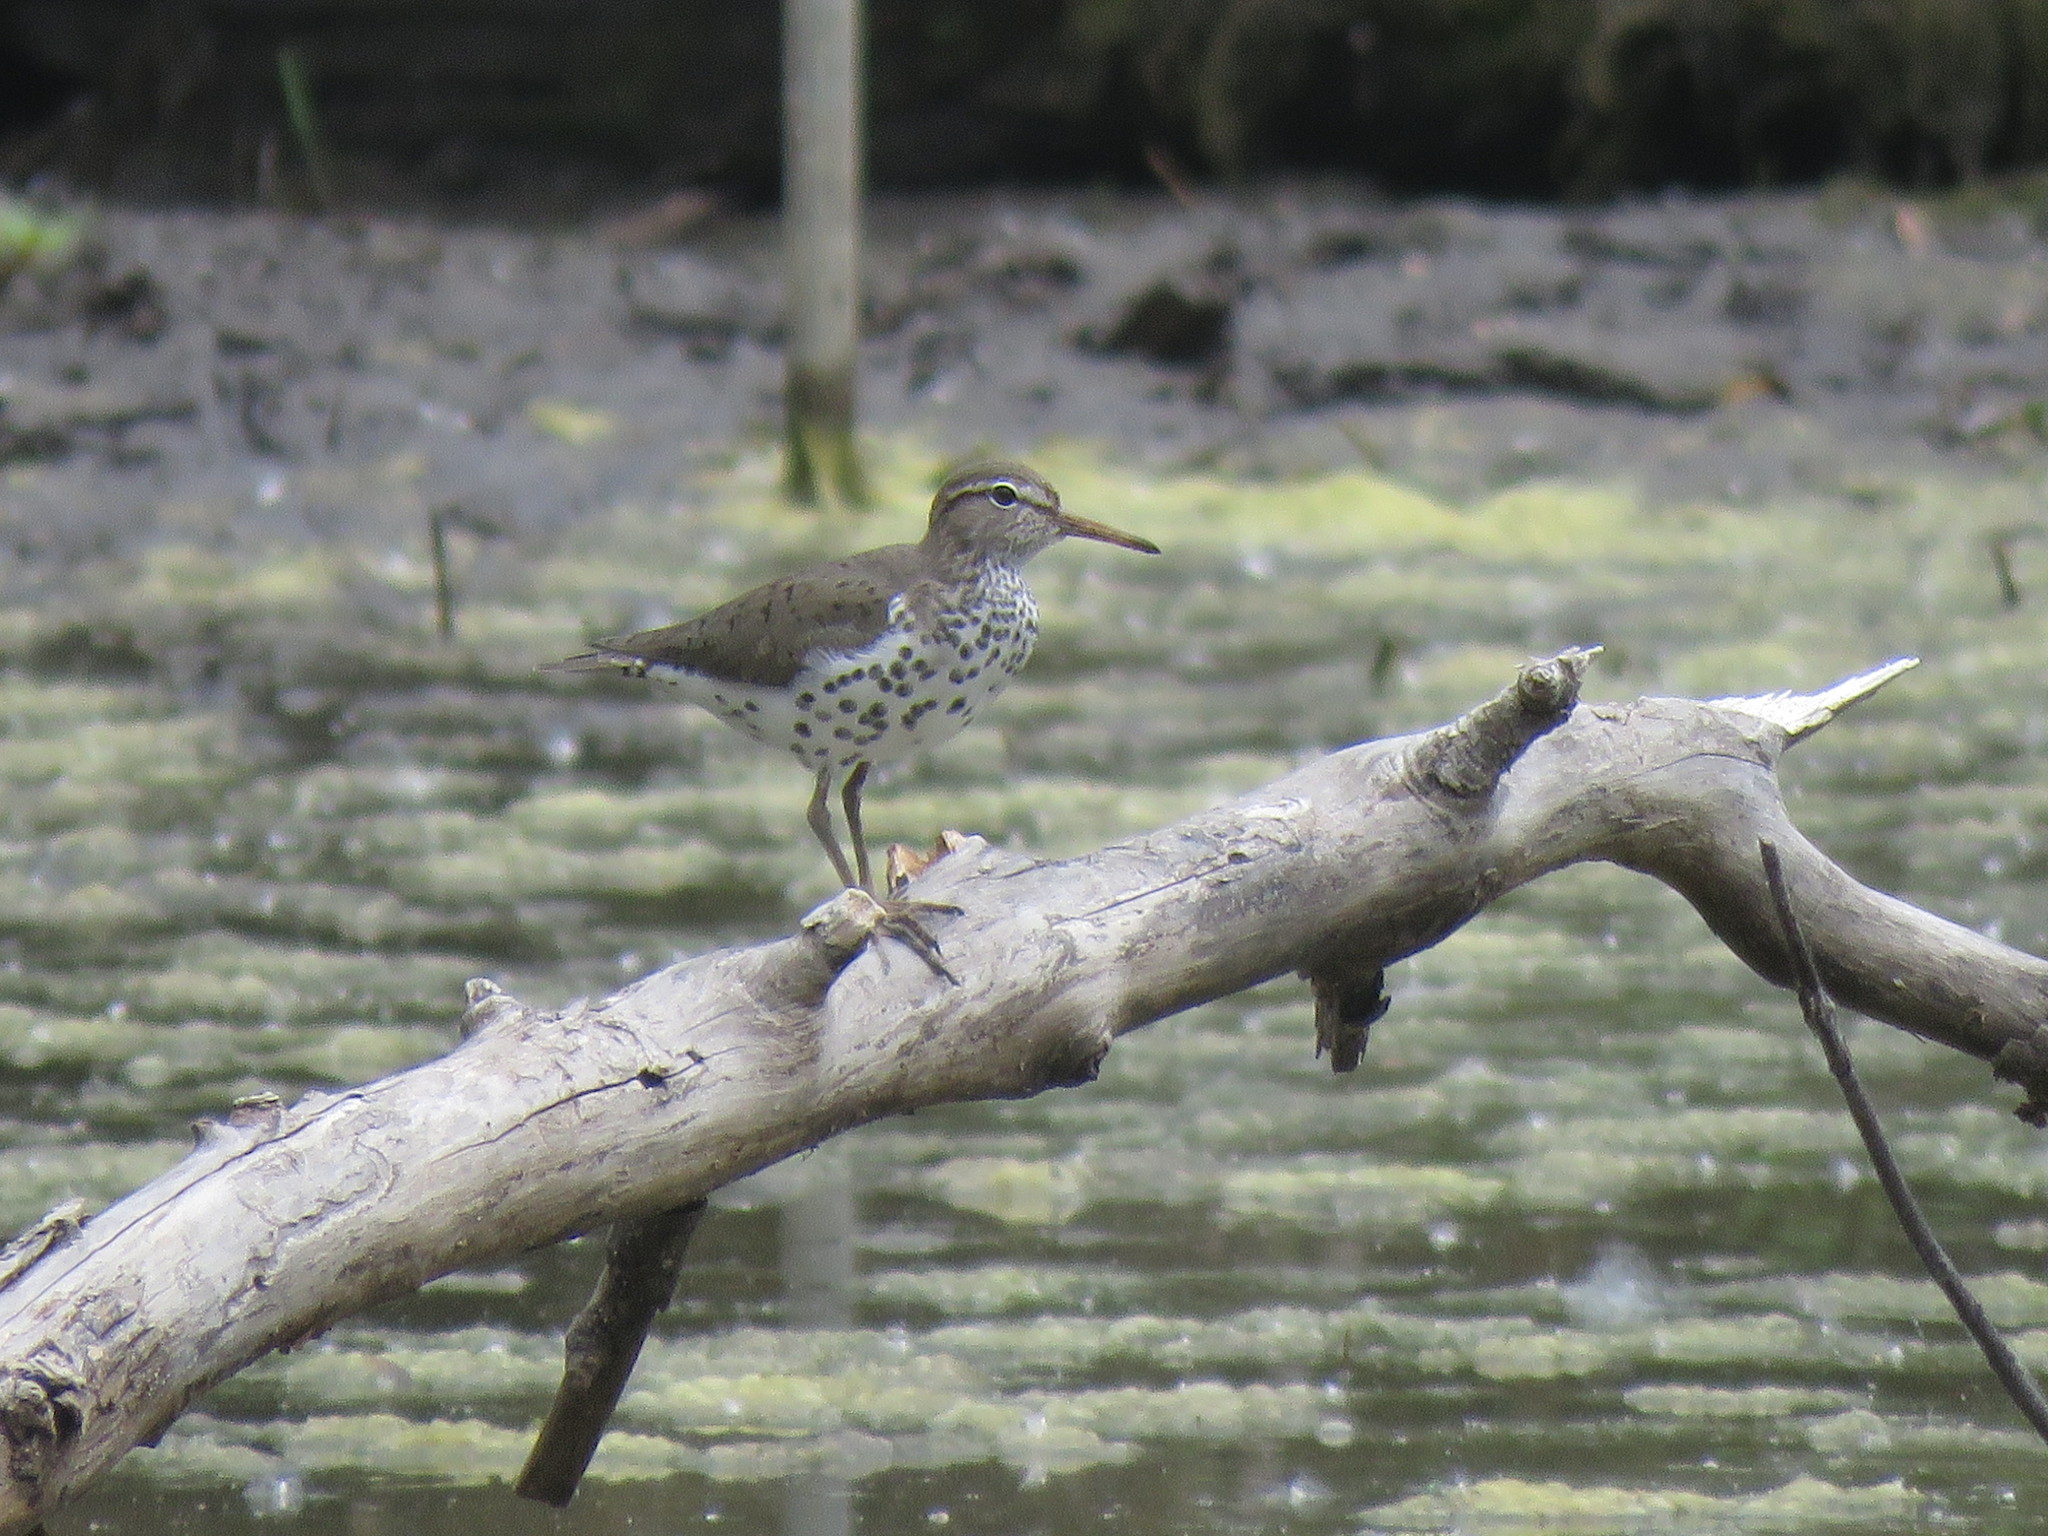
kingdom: Animalia
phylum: Chordata
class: Aves
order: Charadriiformes
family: Scolopacidae
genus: Actitis
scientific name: Actitis macularius
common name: Spotted sandpiper
